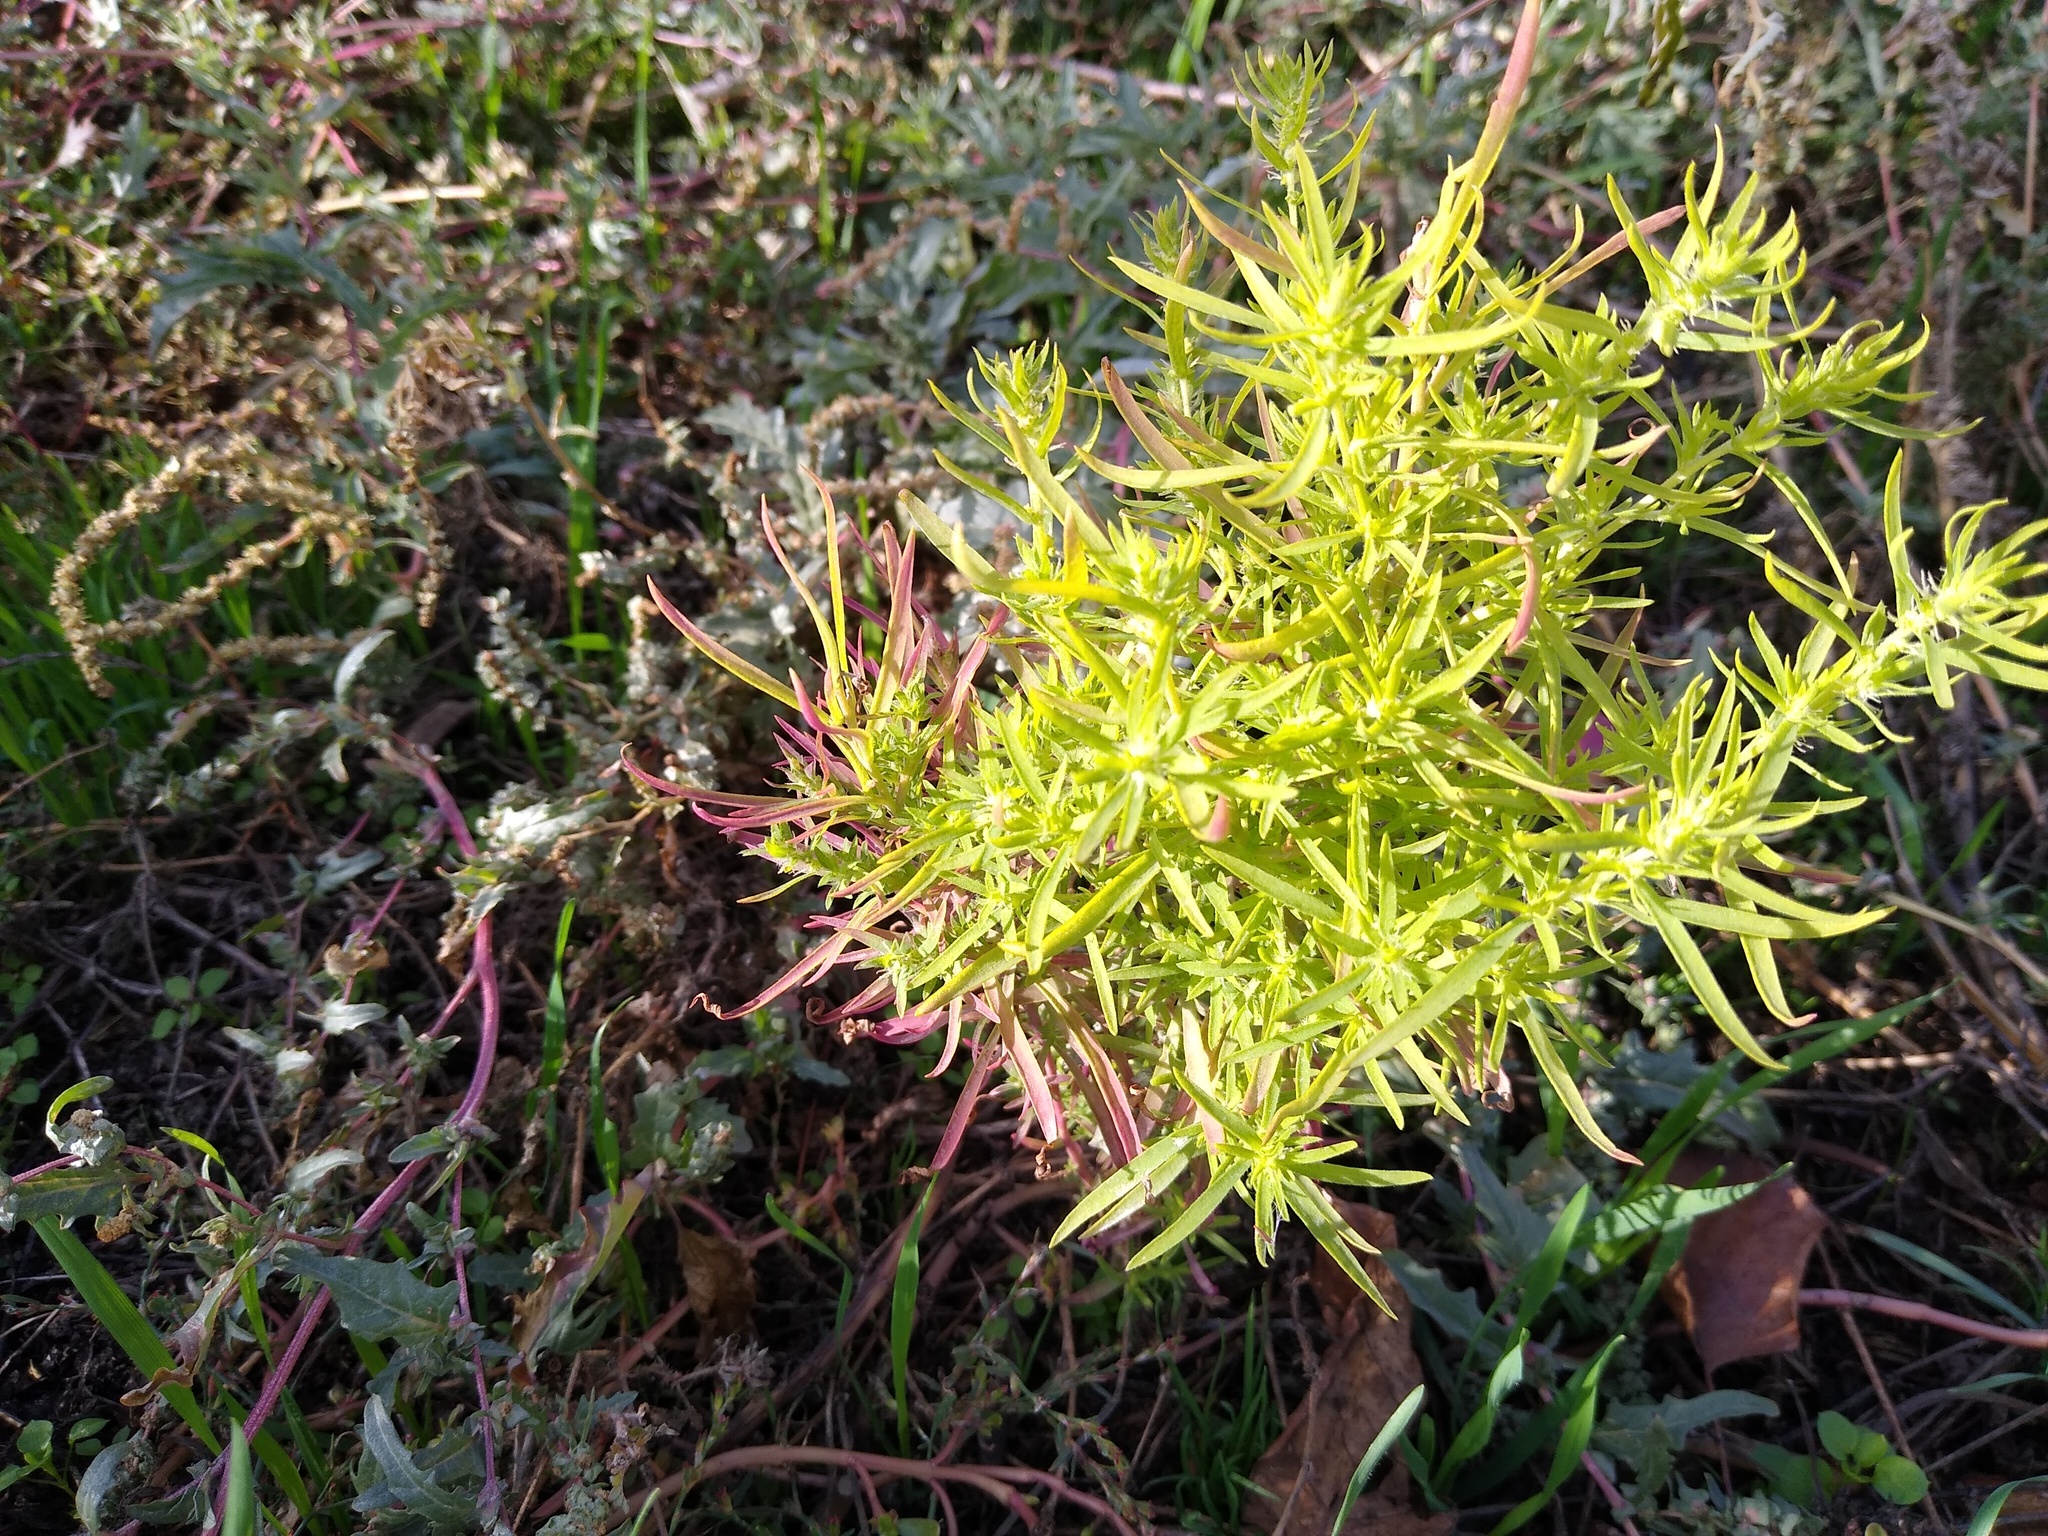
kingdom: Plantae
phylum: Tracheophyta
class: Magnoliopsida
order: Caryophyllales
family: Amaranthaceae
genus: Bassia
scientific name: Bassia scoparia
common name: Belvedere
